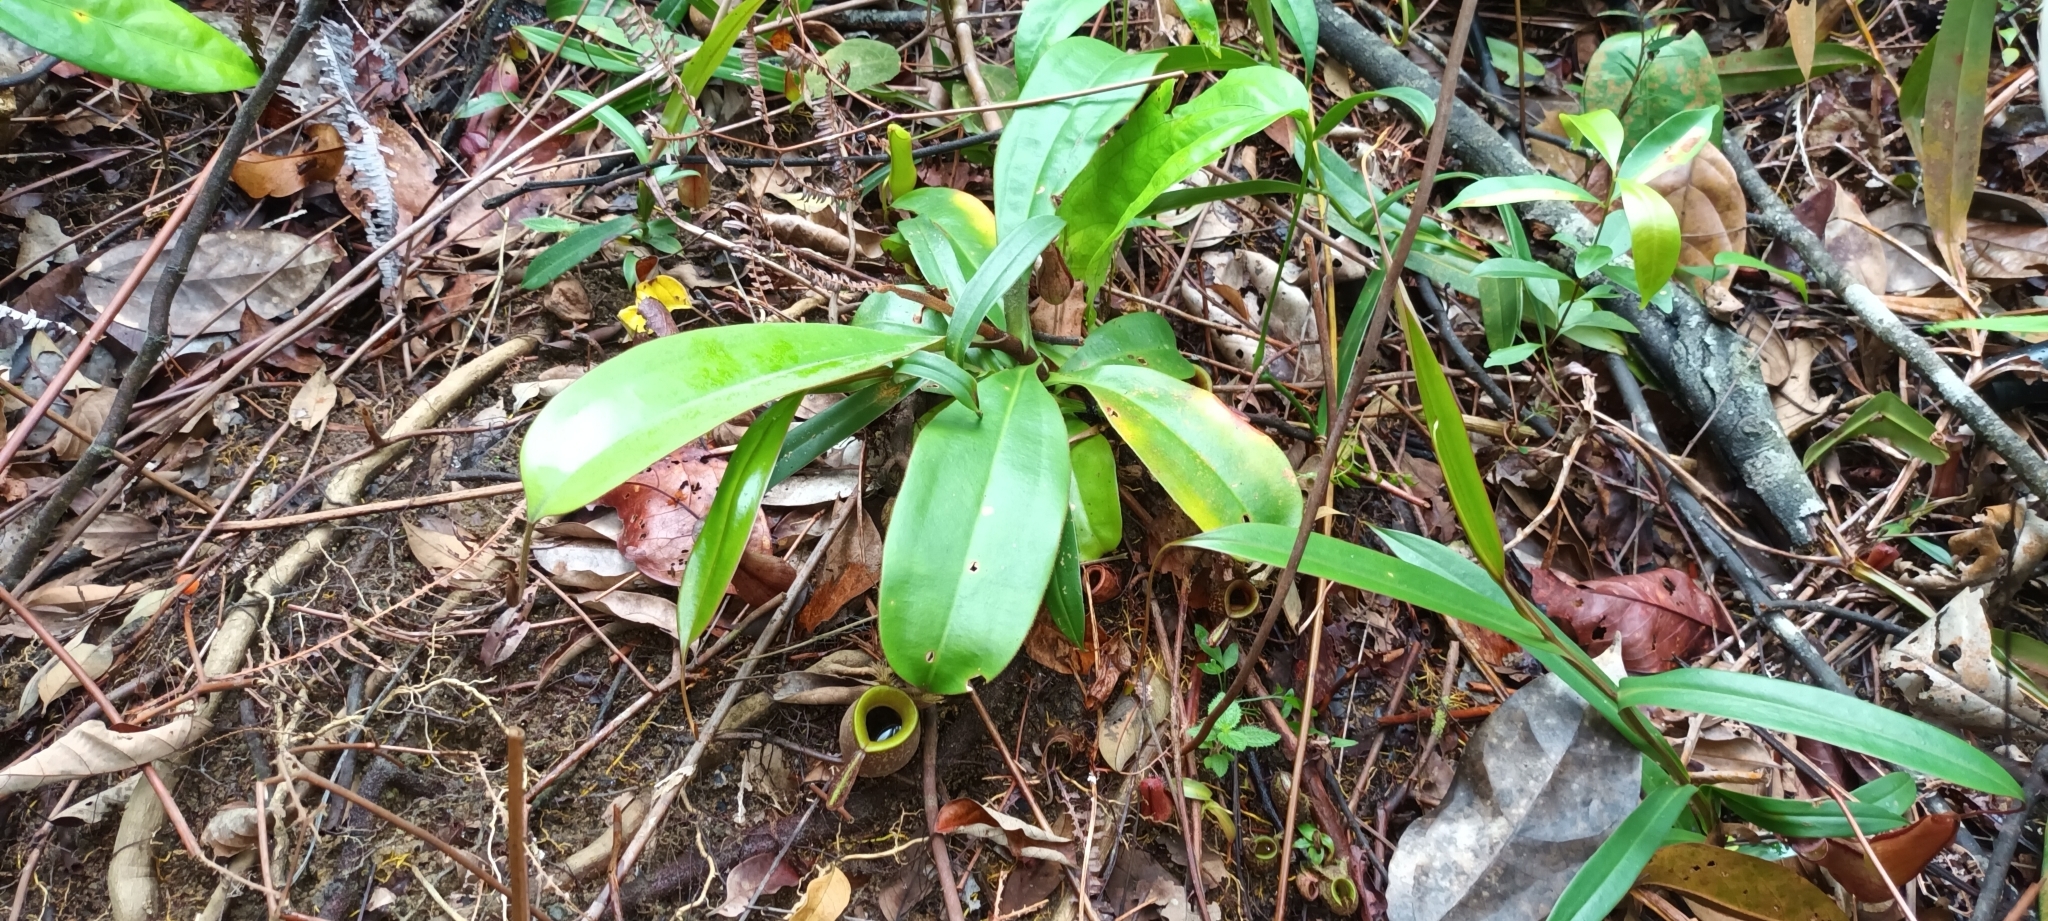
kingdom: Plantae
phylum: Tracheophyta
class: Magnoliopsida
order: Caryophyllales
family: Nepenthaceae
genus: Nepenthes
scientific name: Nepenthes ampullaria
